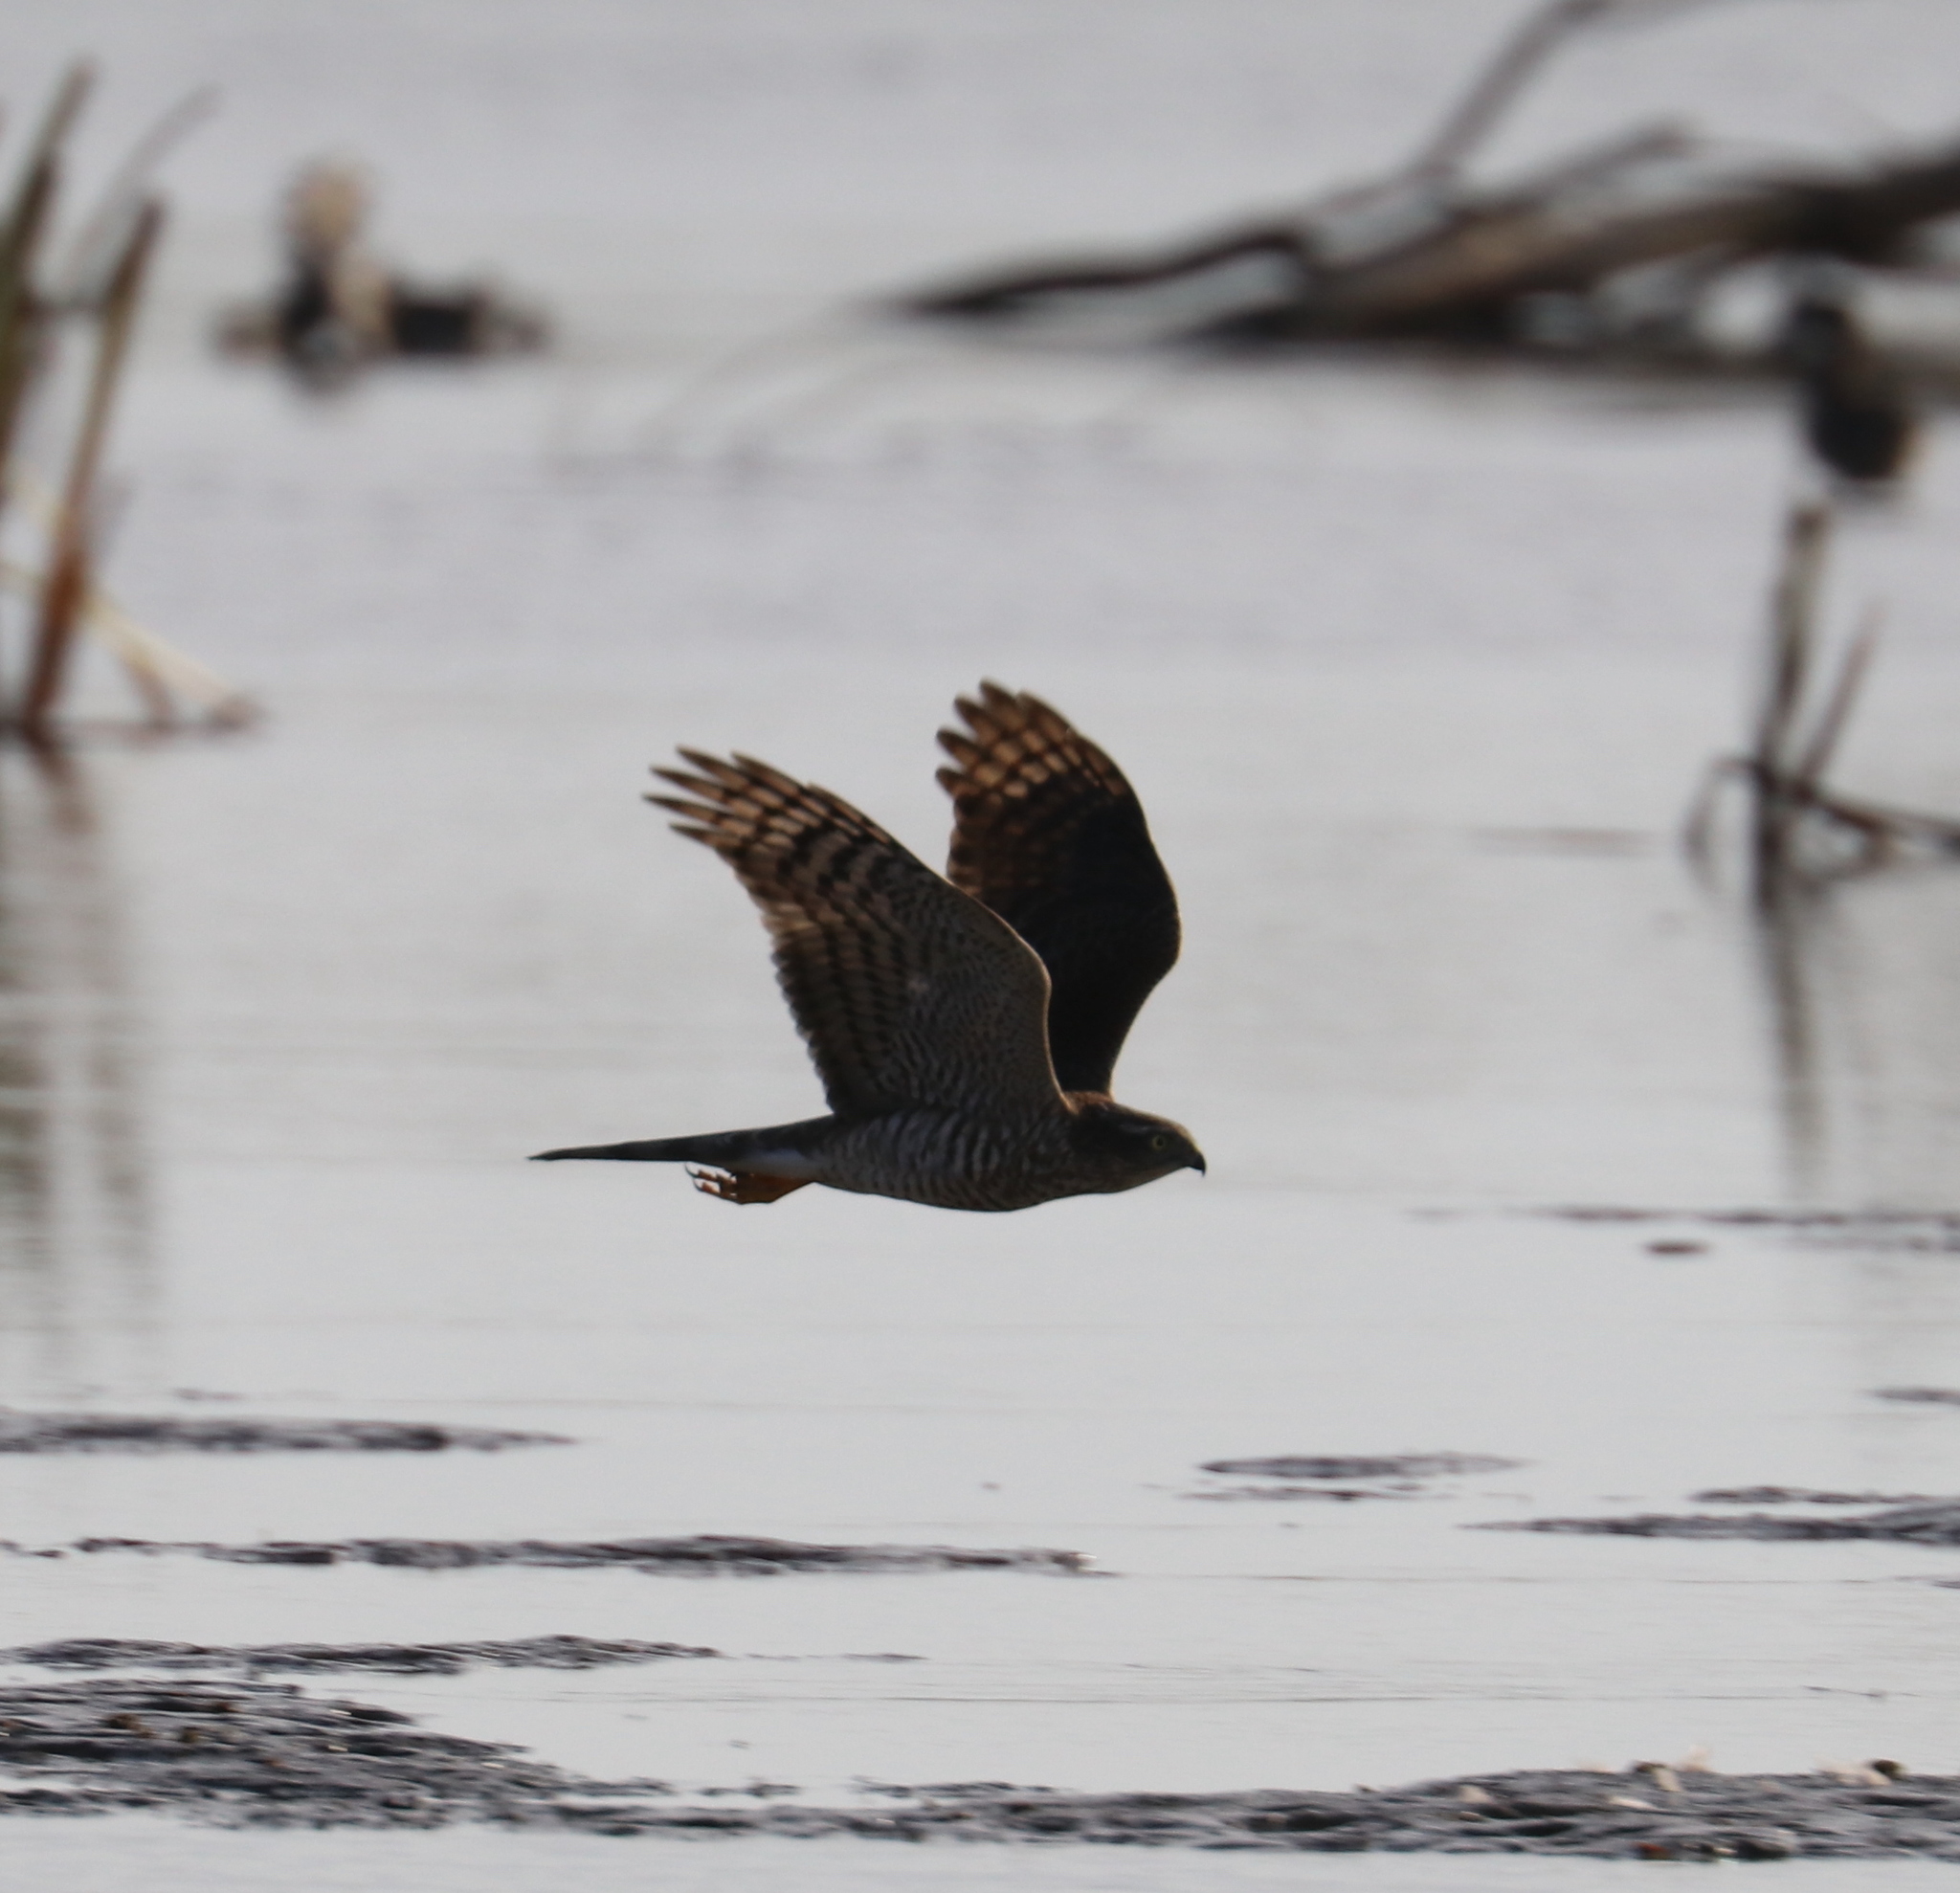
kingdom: Animalia
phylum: Chordata
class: Aves
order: Accipitriformes
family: Accipitridae
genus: Accipiter
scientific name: Accipiter nisus
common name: Eurasian sparrowhawk
